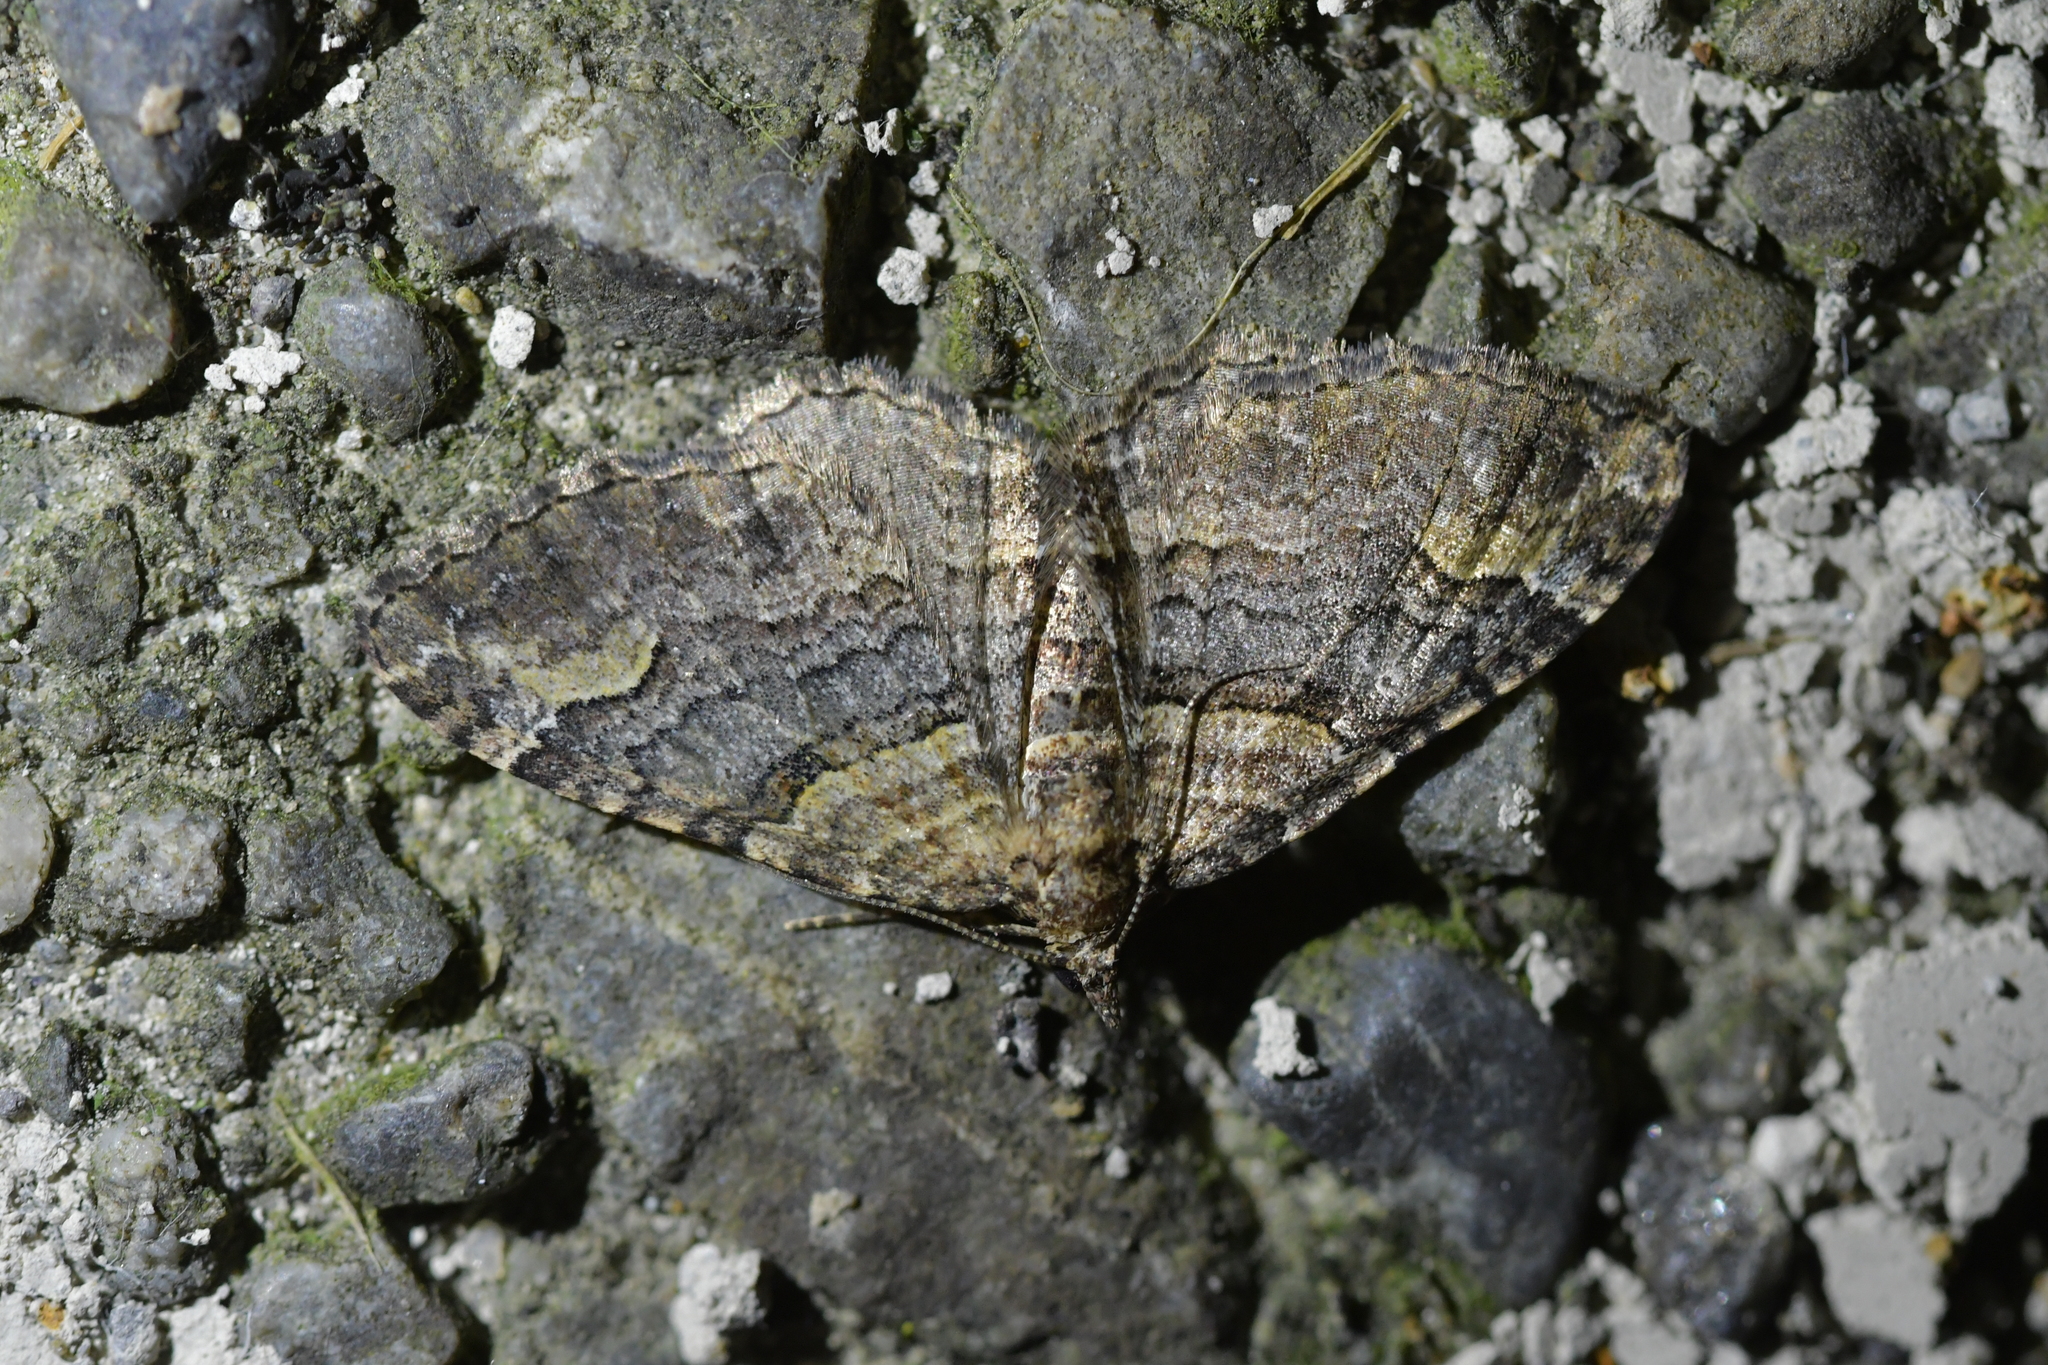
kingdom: Animalia
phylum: Arthropoda
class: Insecta
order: Lepidoptera
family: Geometridae
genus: Epyaxa
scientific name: Epyaxa lucidata
